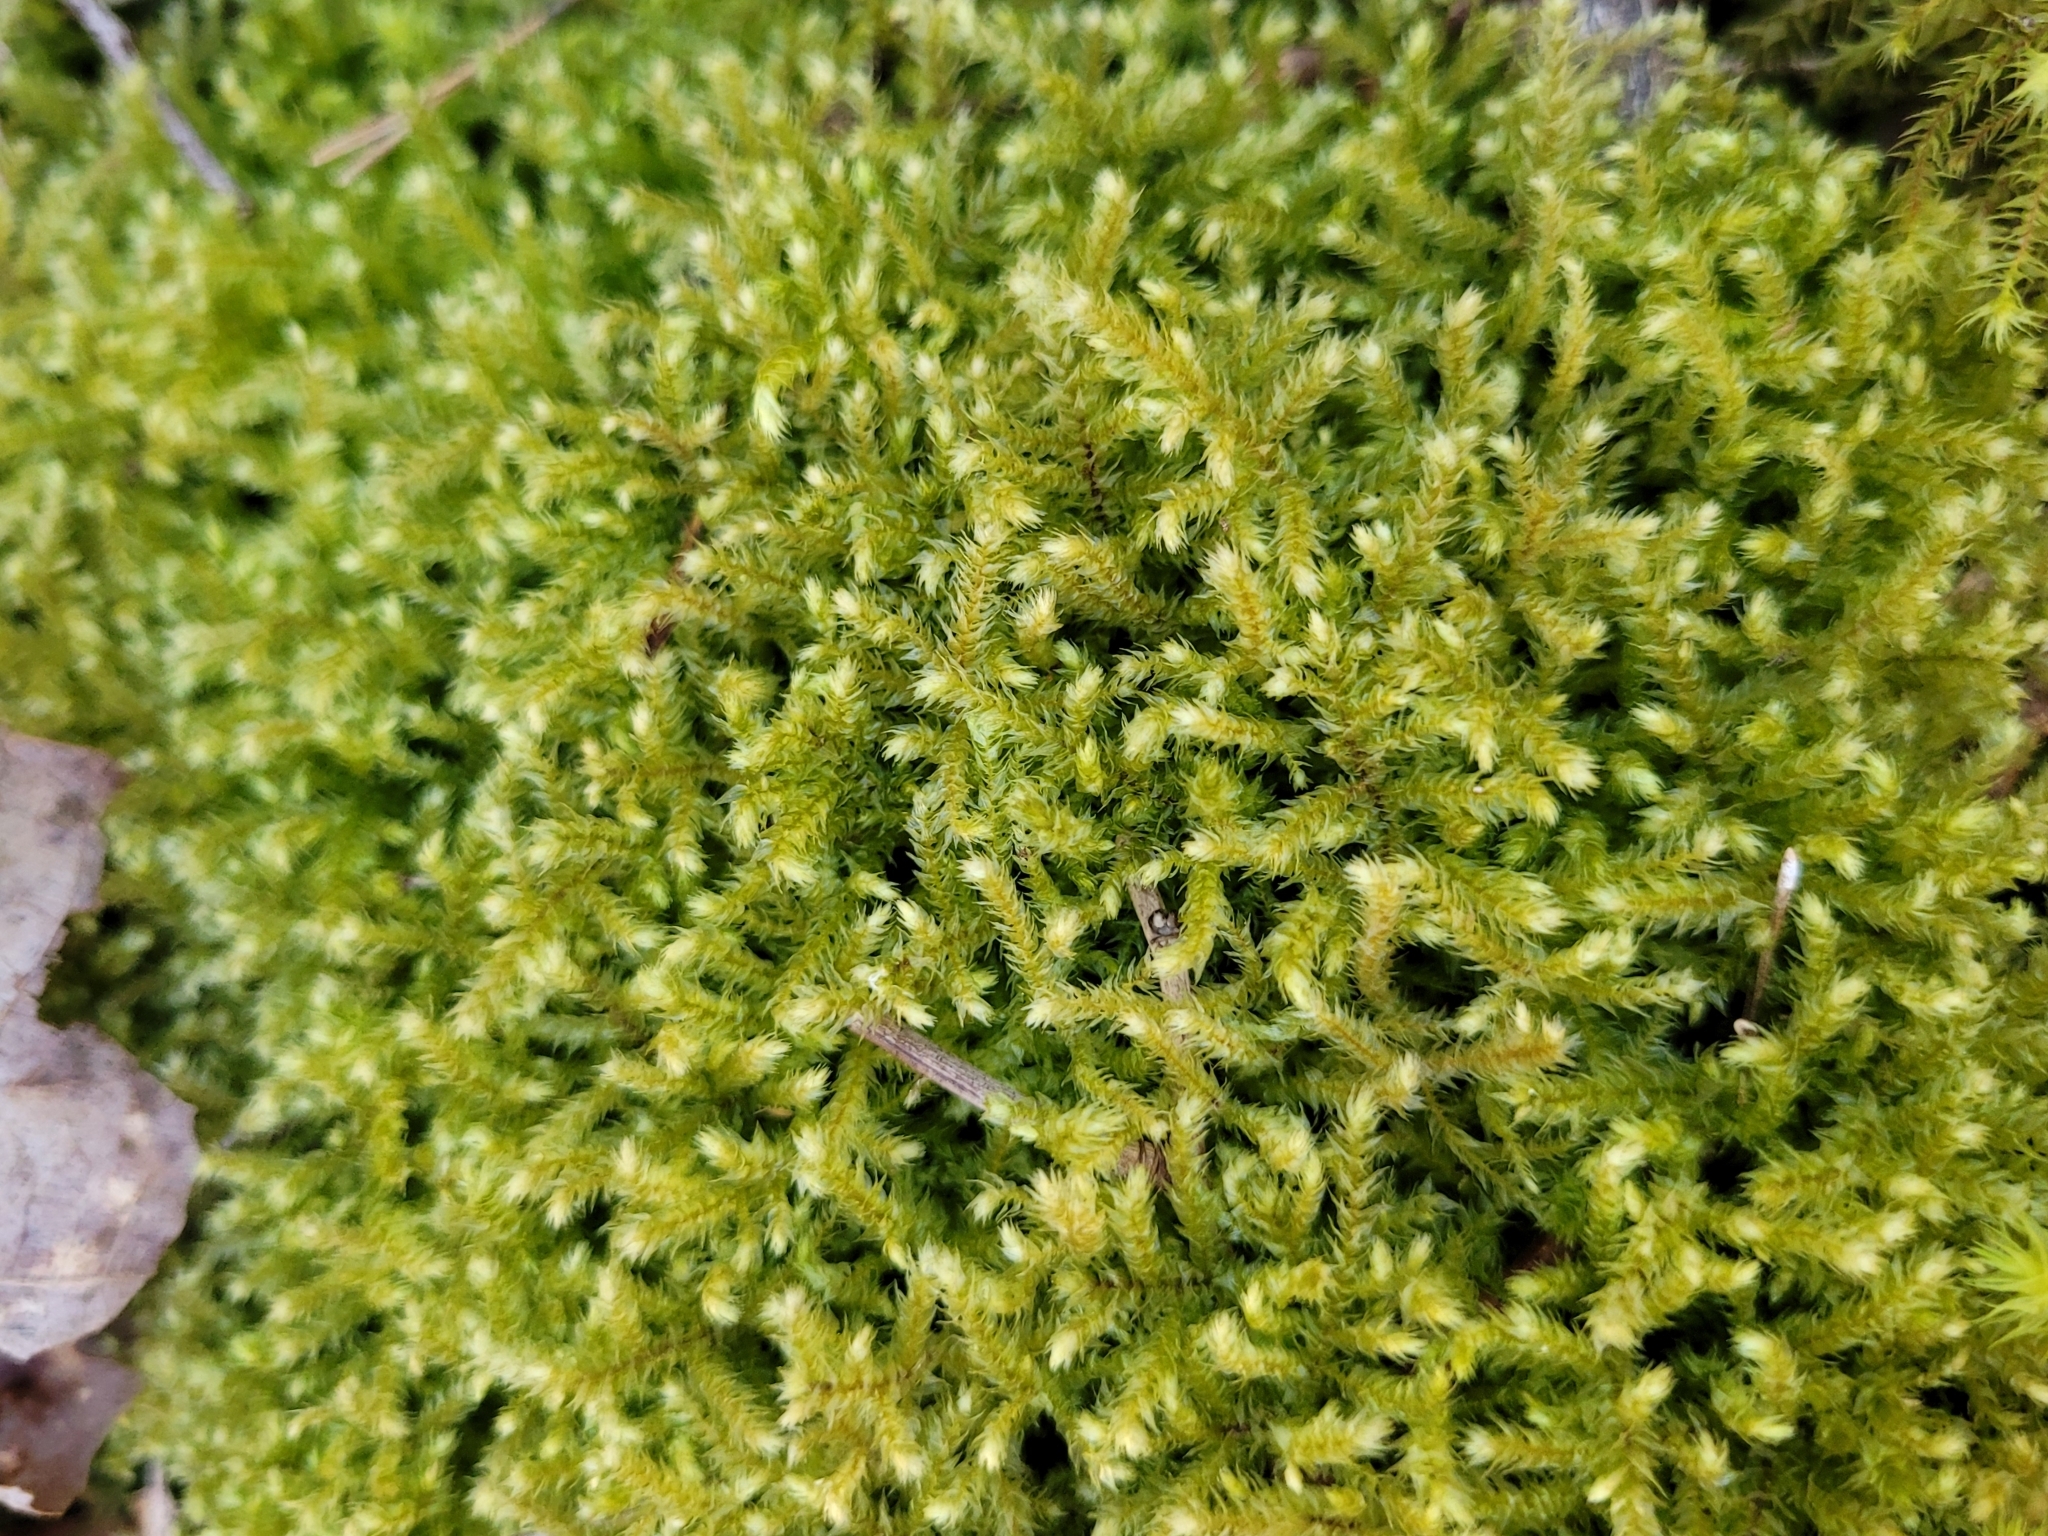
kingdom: Plantae
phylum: Bryophyta
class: Bryopsida
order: Hypnales
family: Brachytheciaceae
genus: Eurhynchium
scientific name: Eurhynchium striatum
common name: Common striated feather-moss
